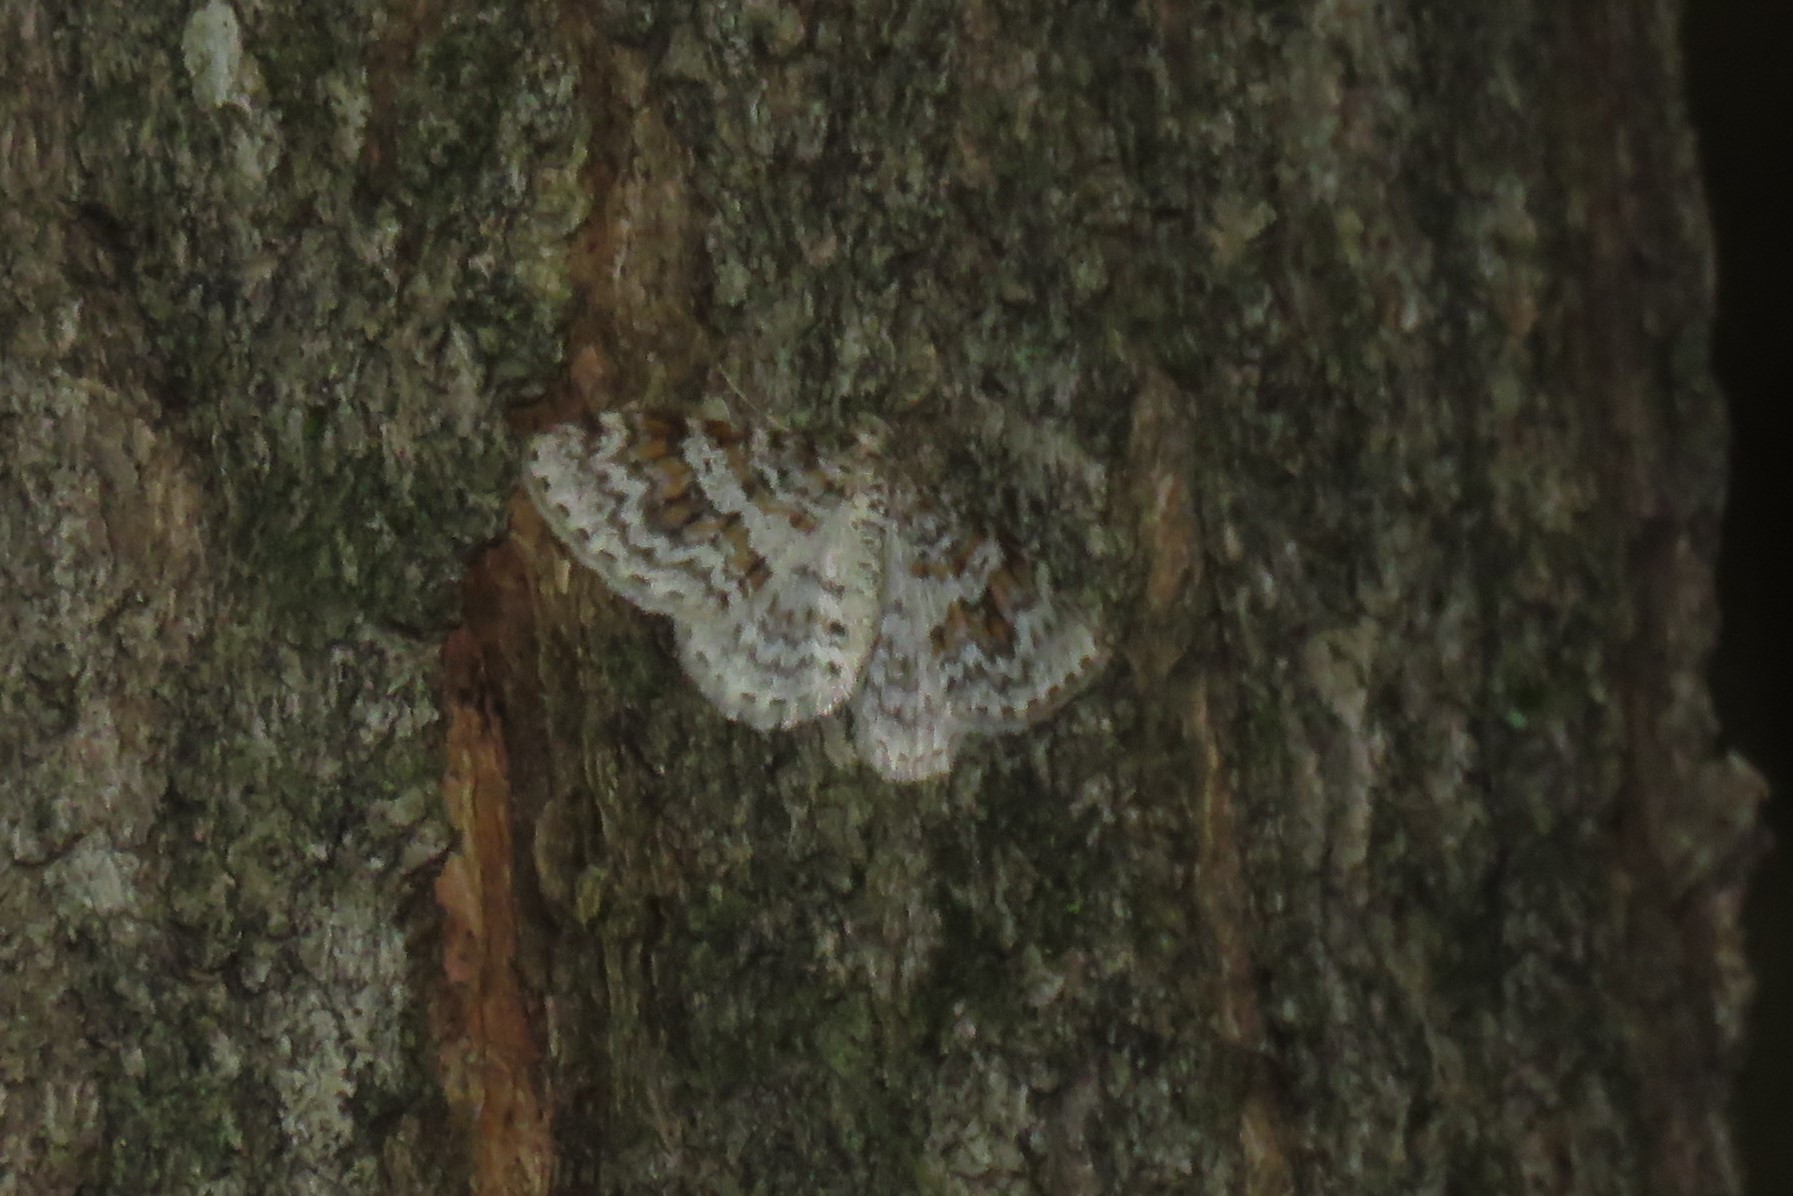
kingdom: Animalia
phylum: Arthropoda
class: Insecta
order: Lepidoptera
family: Geometridae
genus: Hydrelia
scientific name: Hydrelia inornata
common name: Unadorned carpet moth
